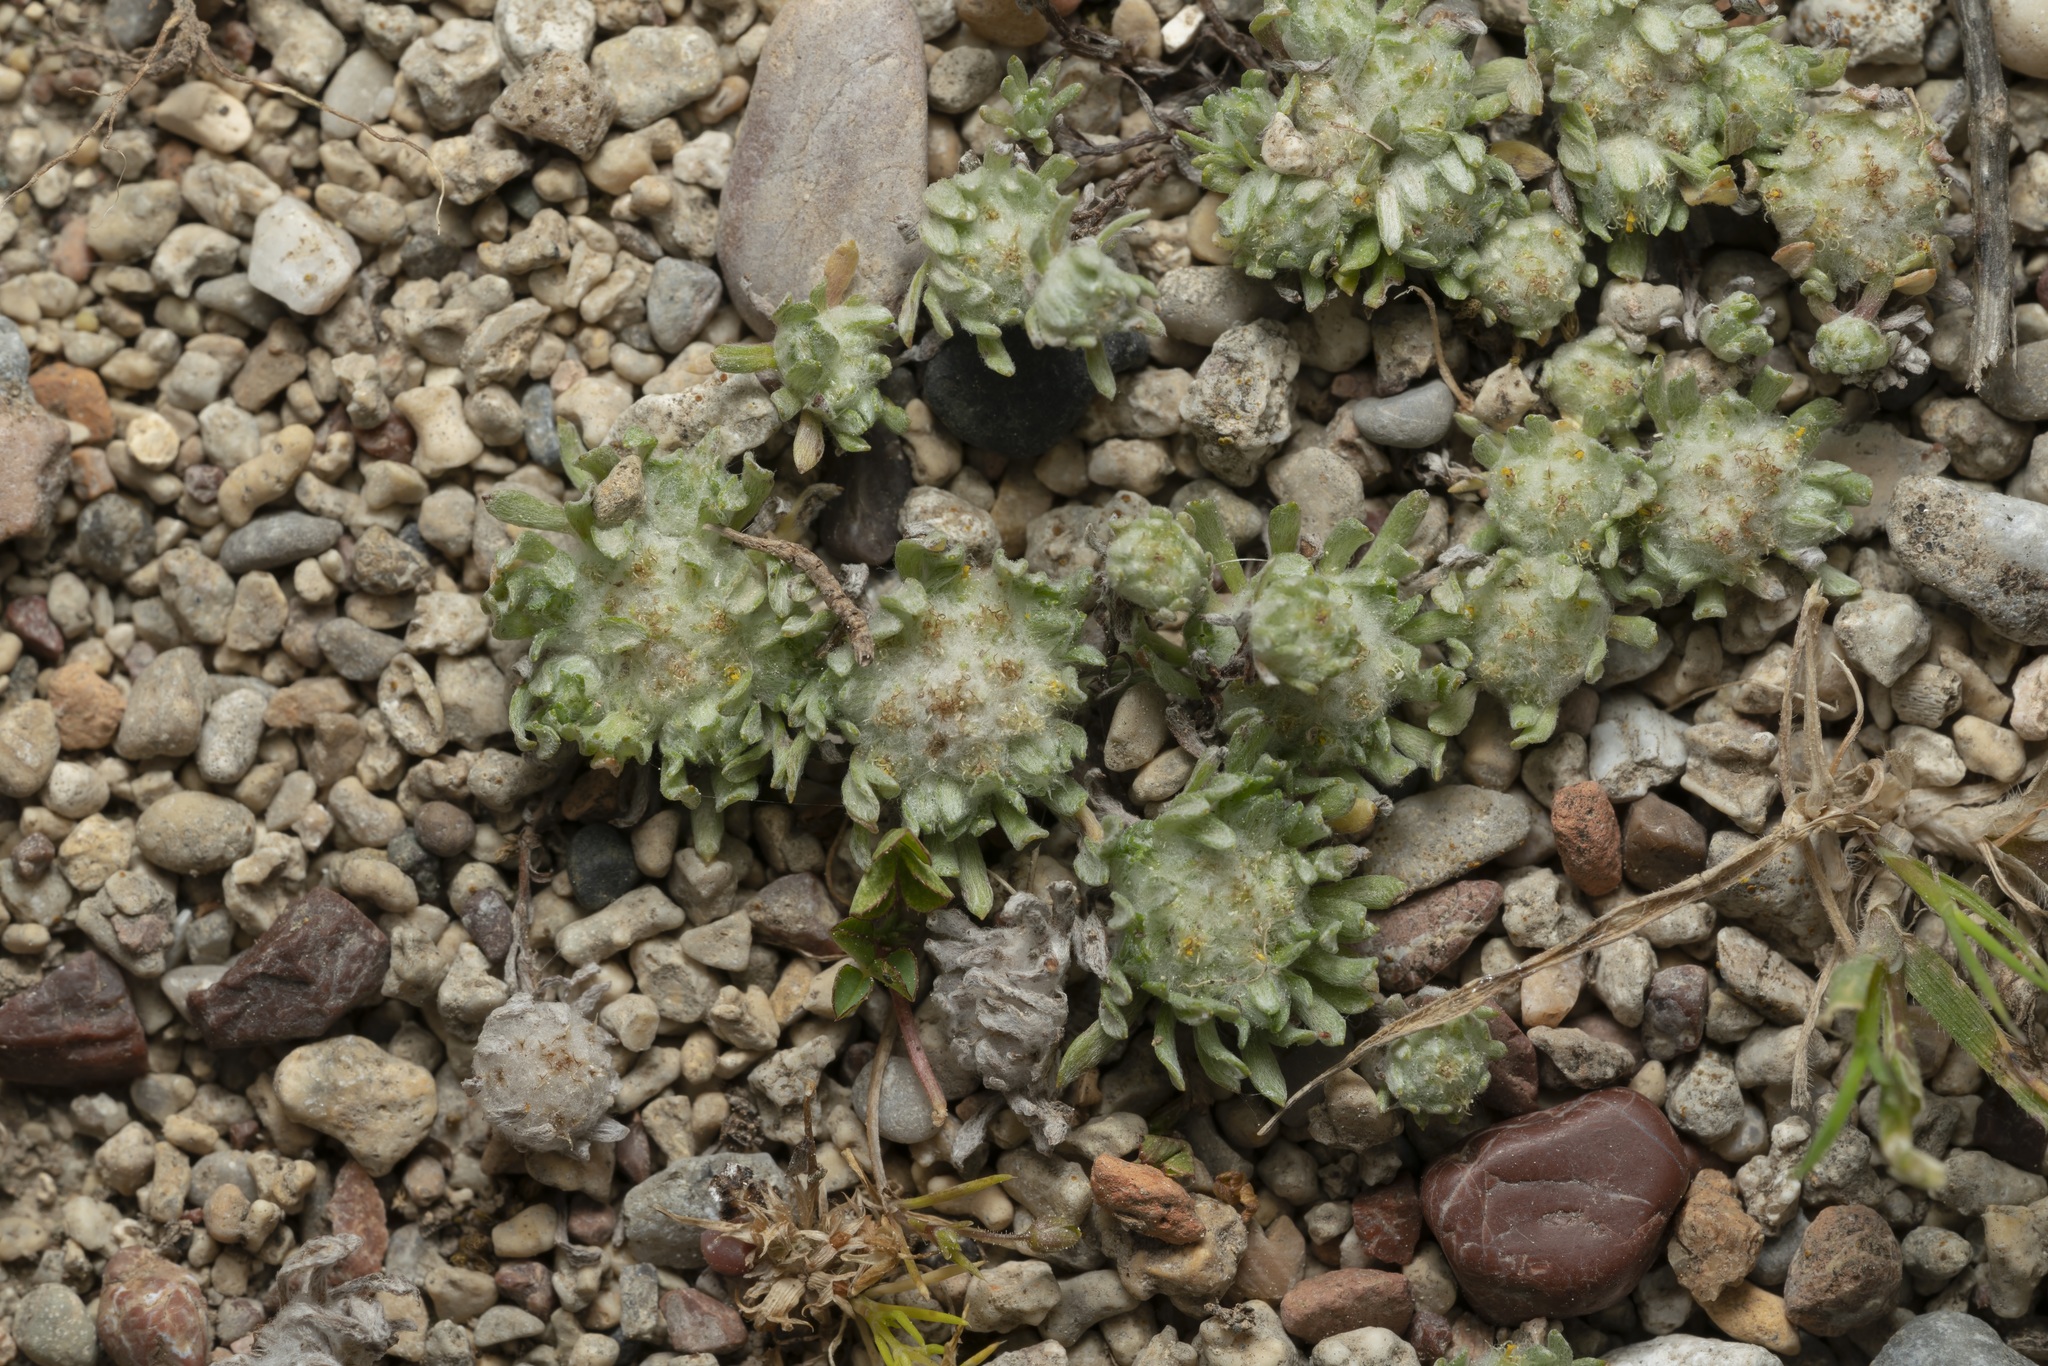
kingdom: Plantae
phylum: Tracheophyta
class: Magnoliopsida
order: Asterales
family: Asteraceae
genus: Filago
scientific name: Filago eriosphaera
